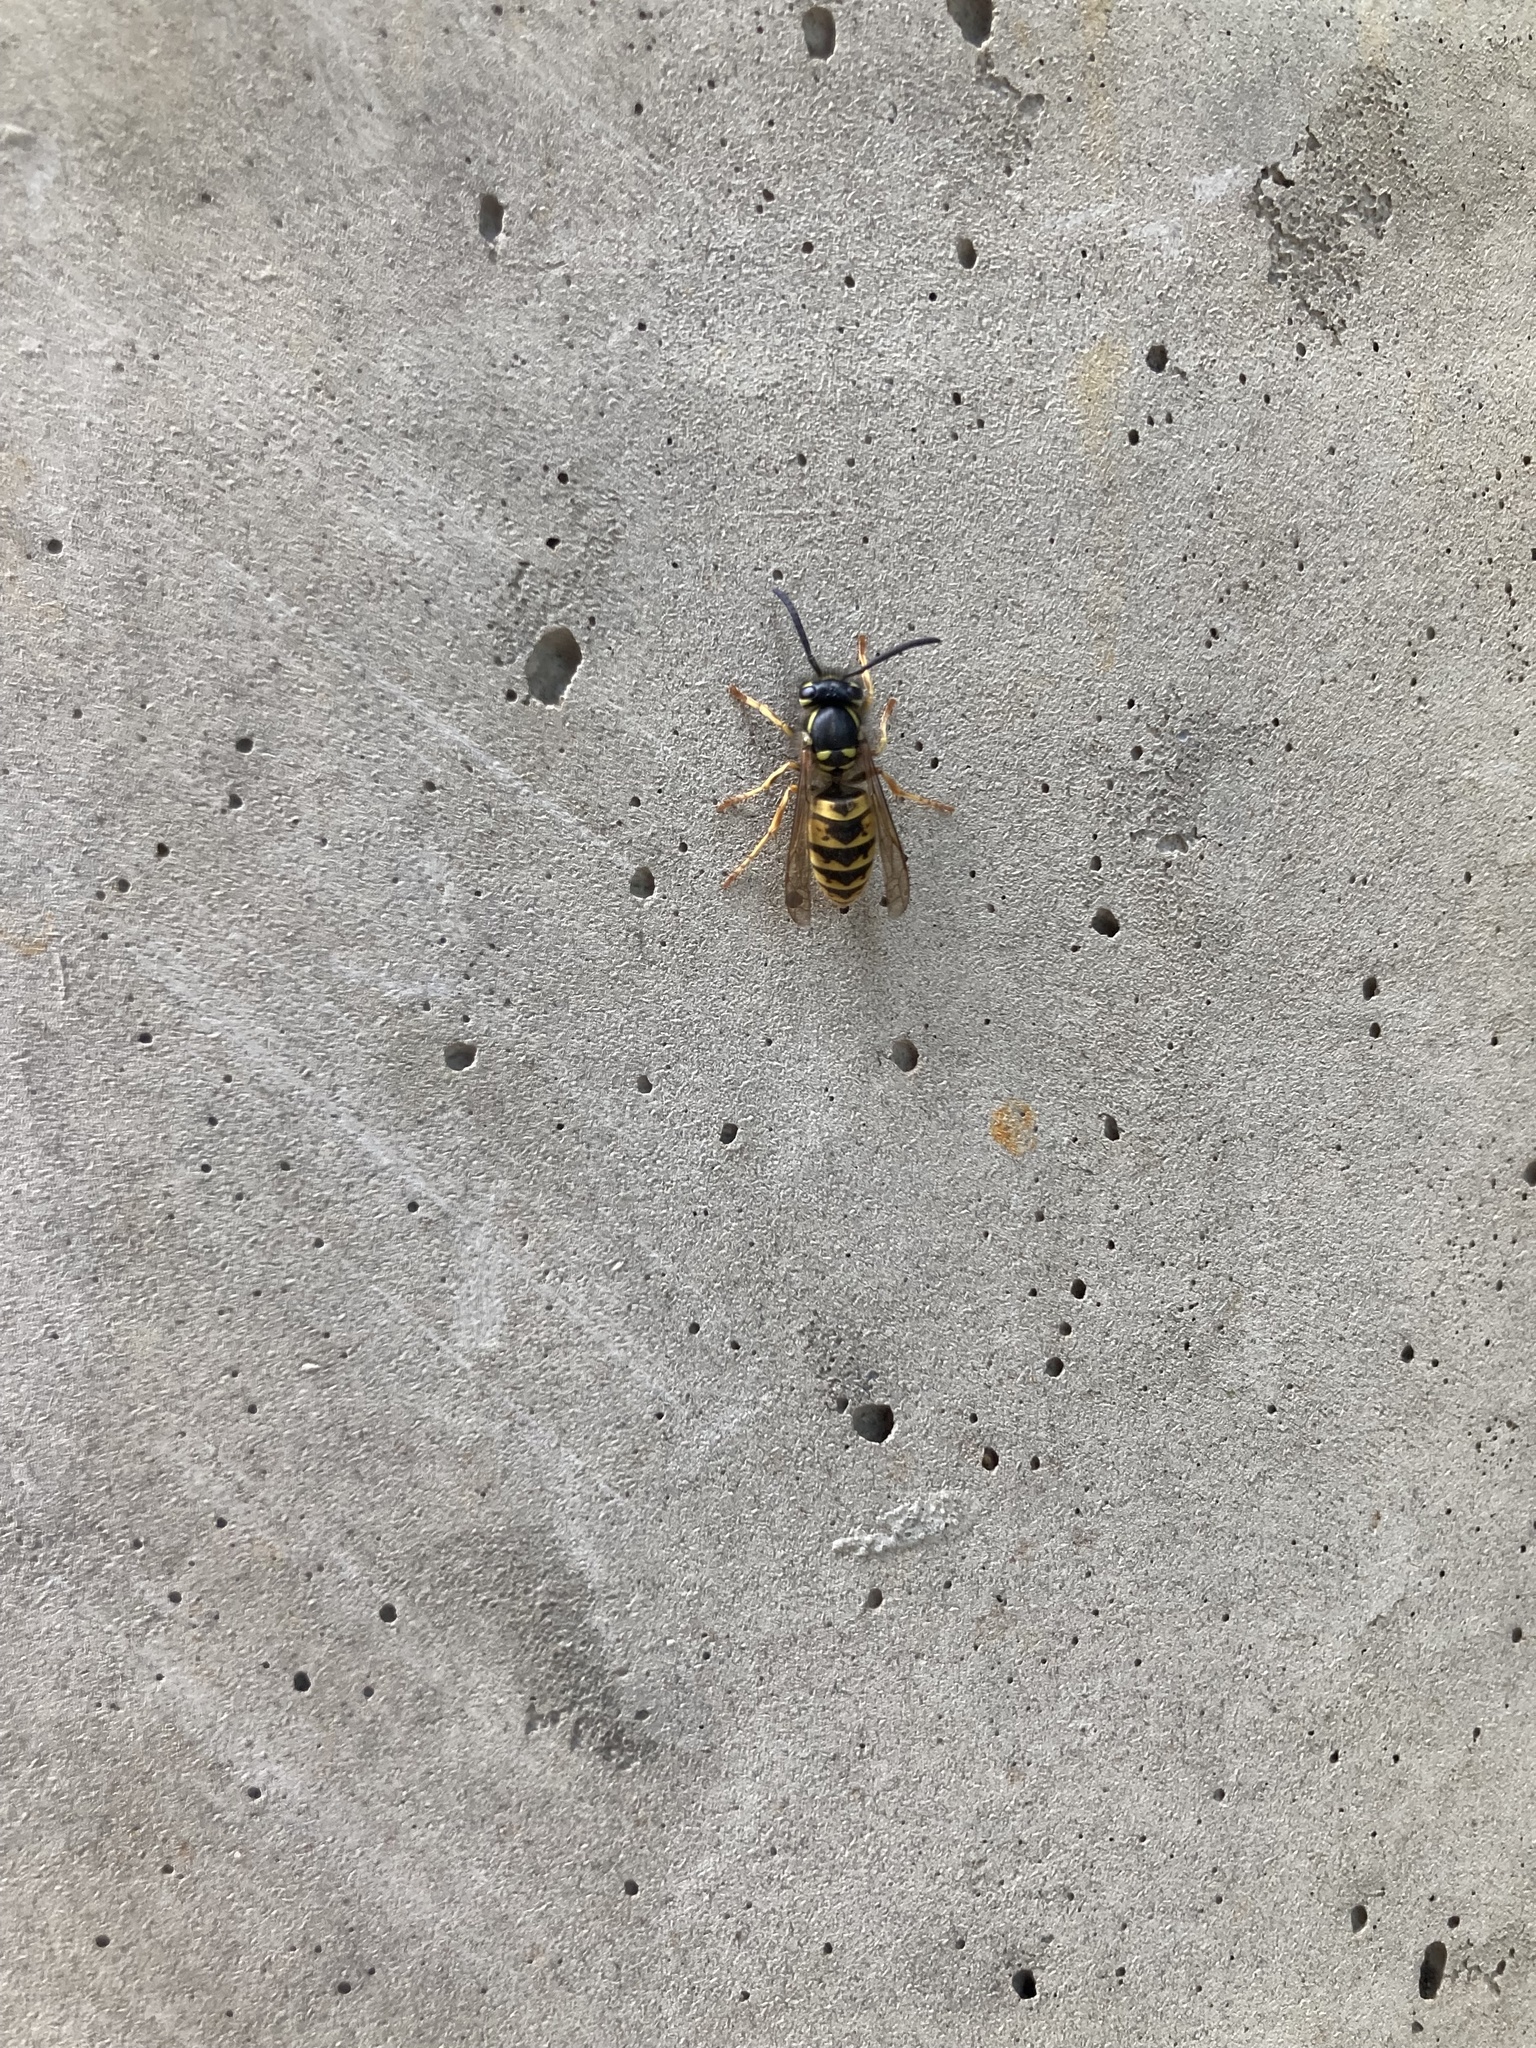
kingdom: Animalia
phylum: Arthropoda
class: Insecta
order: Hymenoptera
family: Vespidae
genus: Vespula
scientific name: Vespula vulgaris
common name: Common wasp
